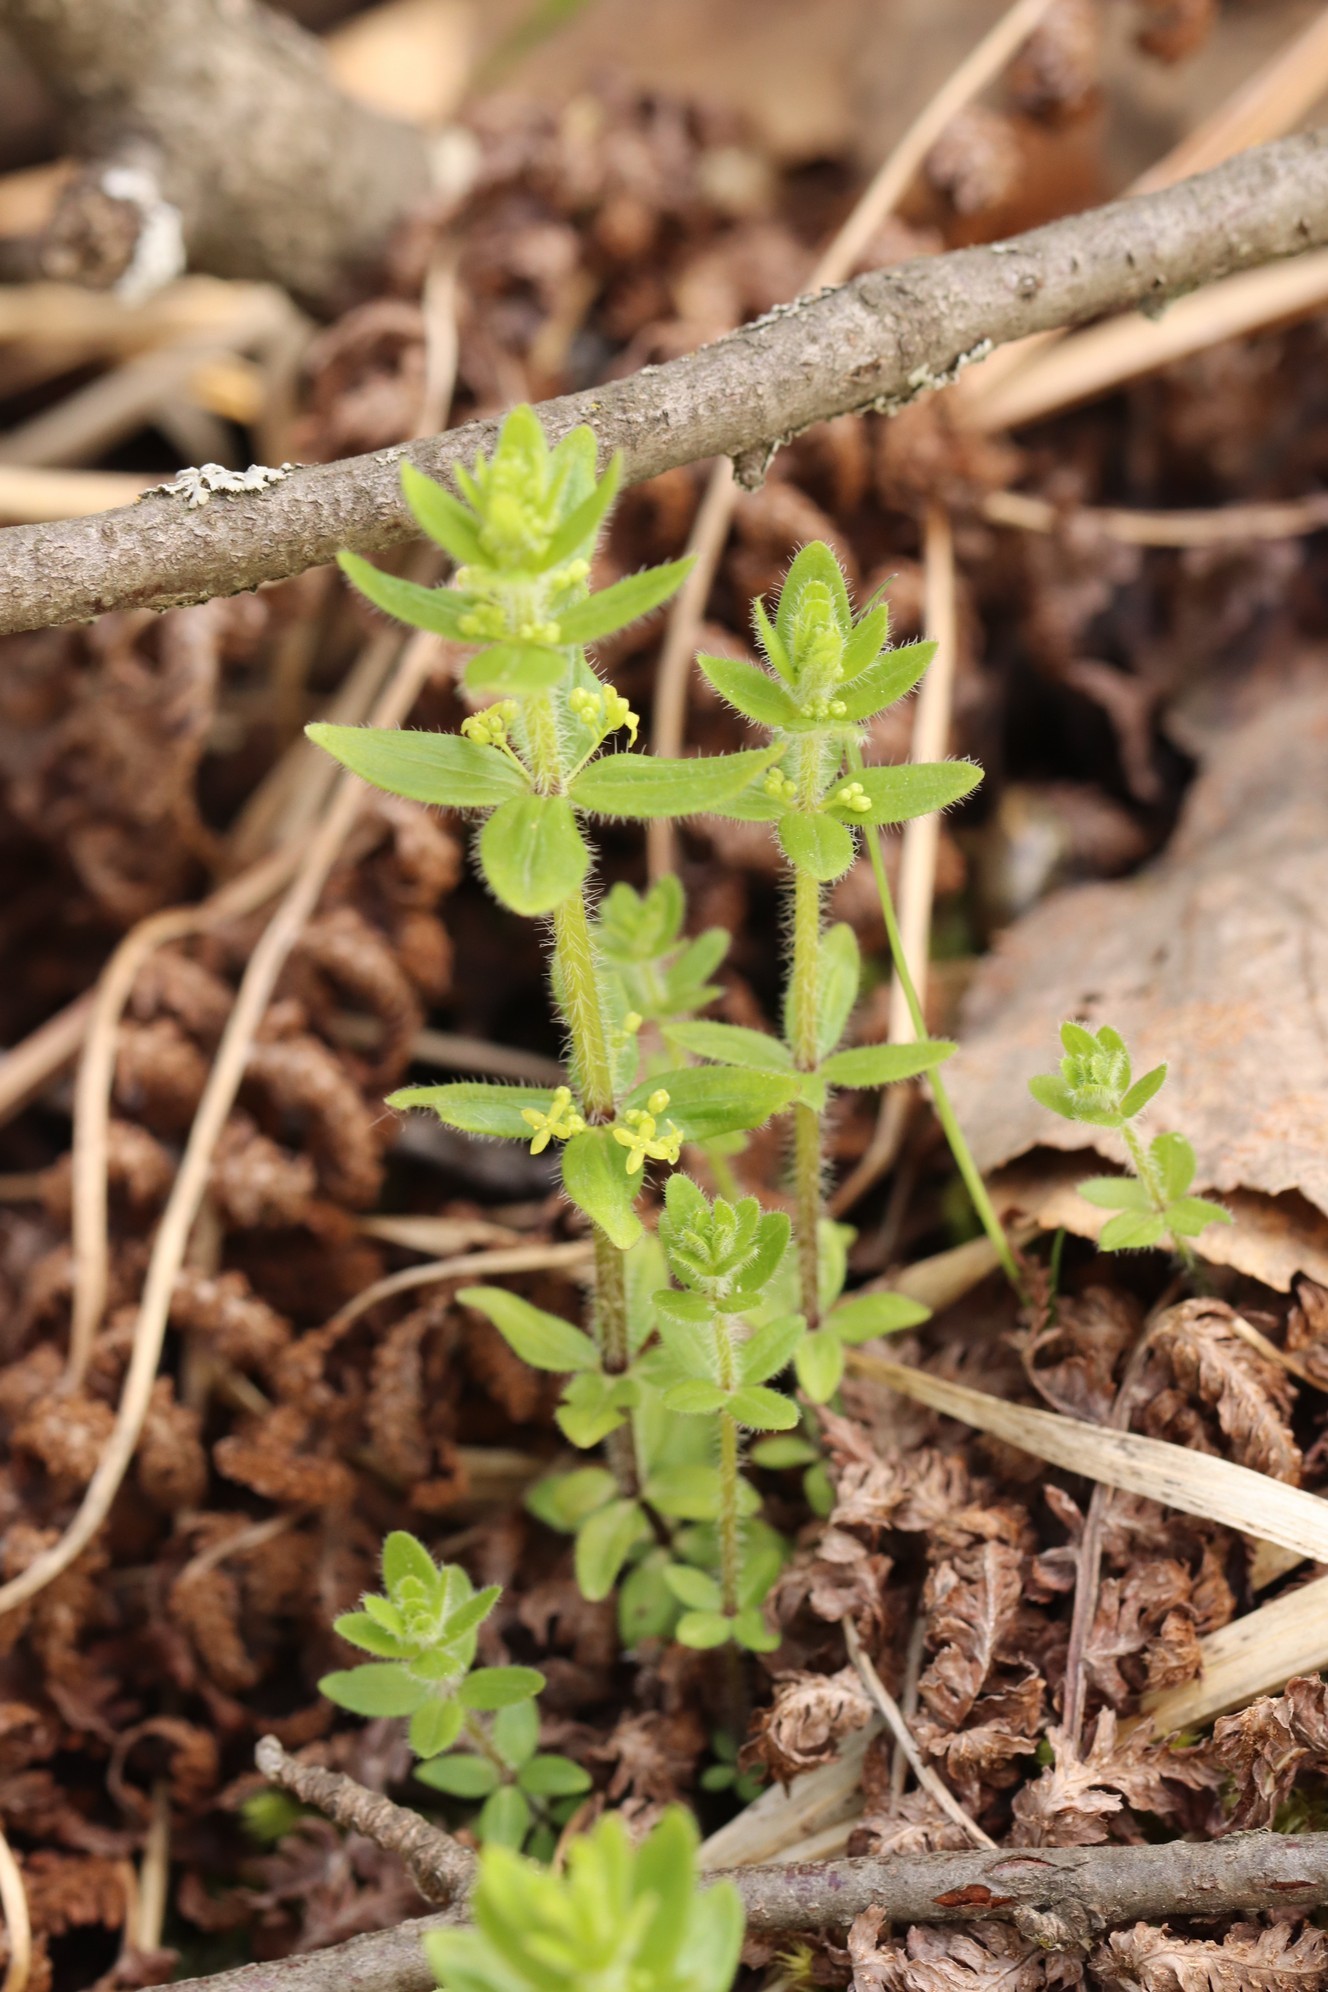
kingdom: Plantae
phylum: Tracheophyta
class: Magnoliopsida
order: Gentianales
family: Rubiaceae
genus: Cruciata
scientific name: Cruciata glabra
